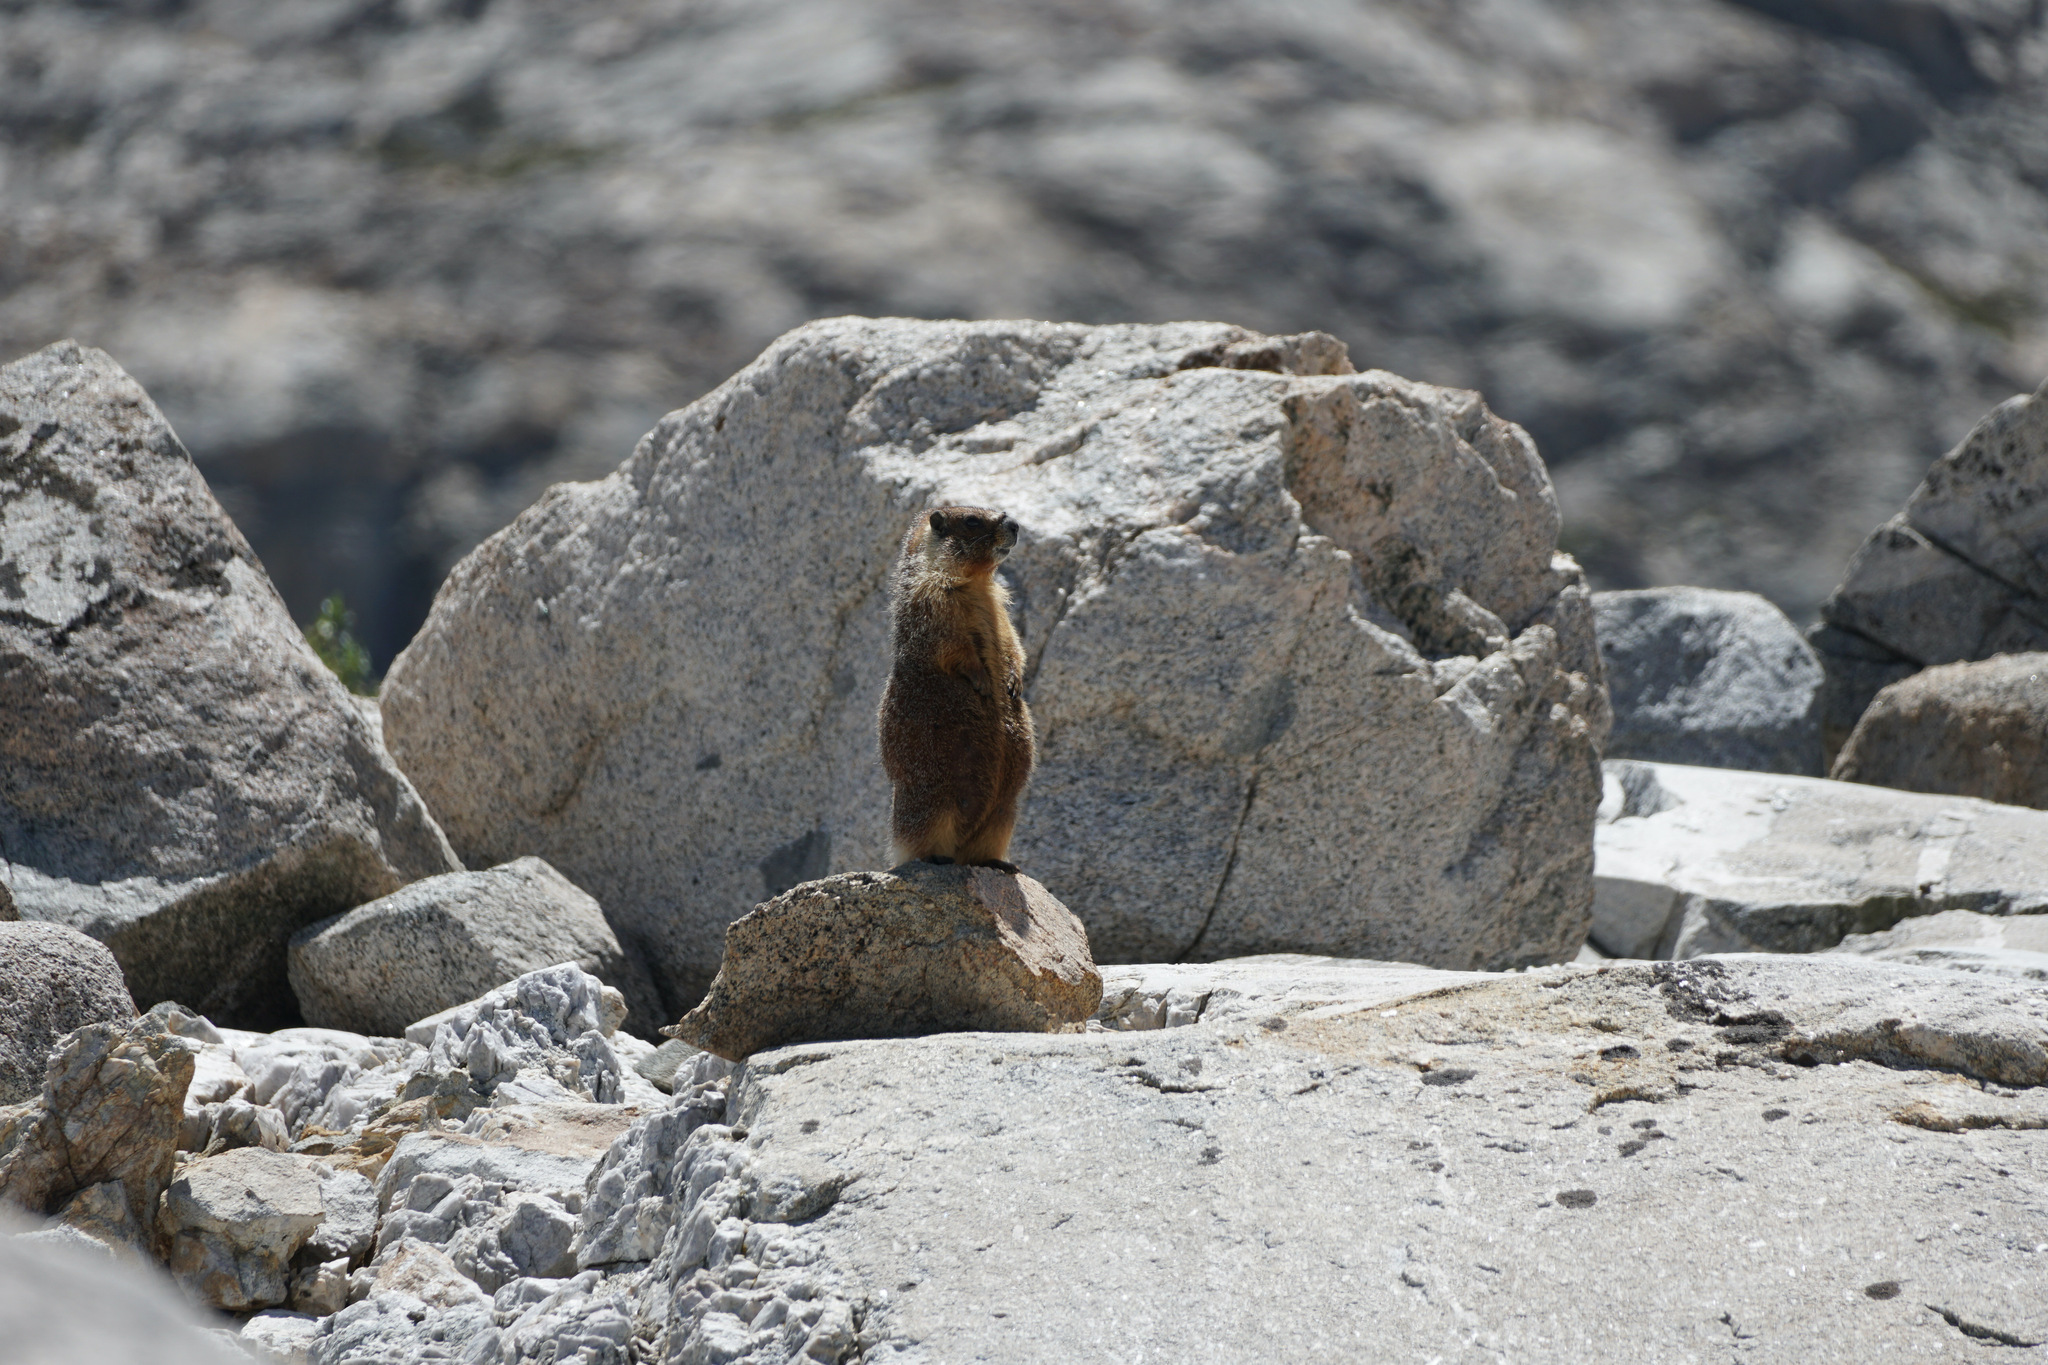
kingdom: Animalia
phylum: Chordata
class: Mammalia
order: Rodentia
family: Sciuridae
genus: Marmota
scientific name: Marmota flaviventris
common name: Yellow-bellied marmot
